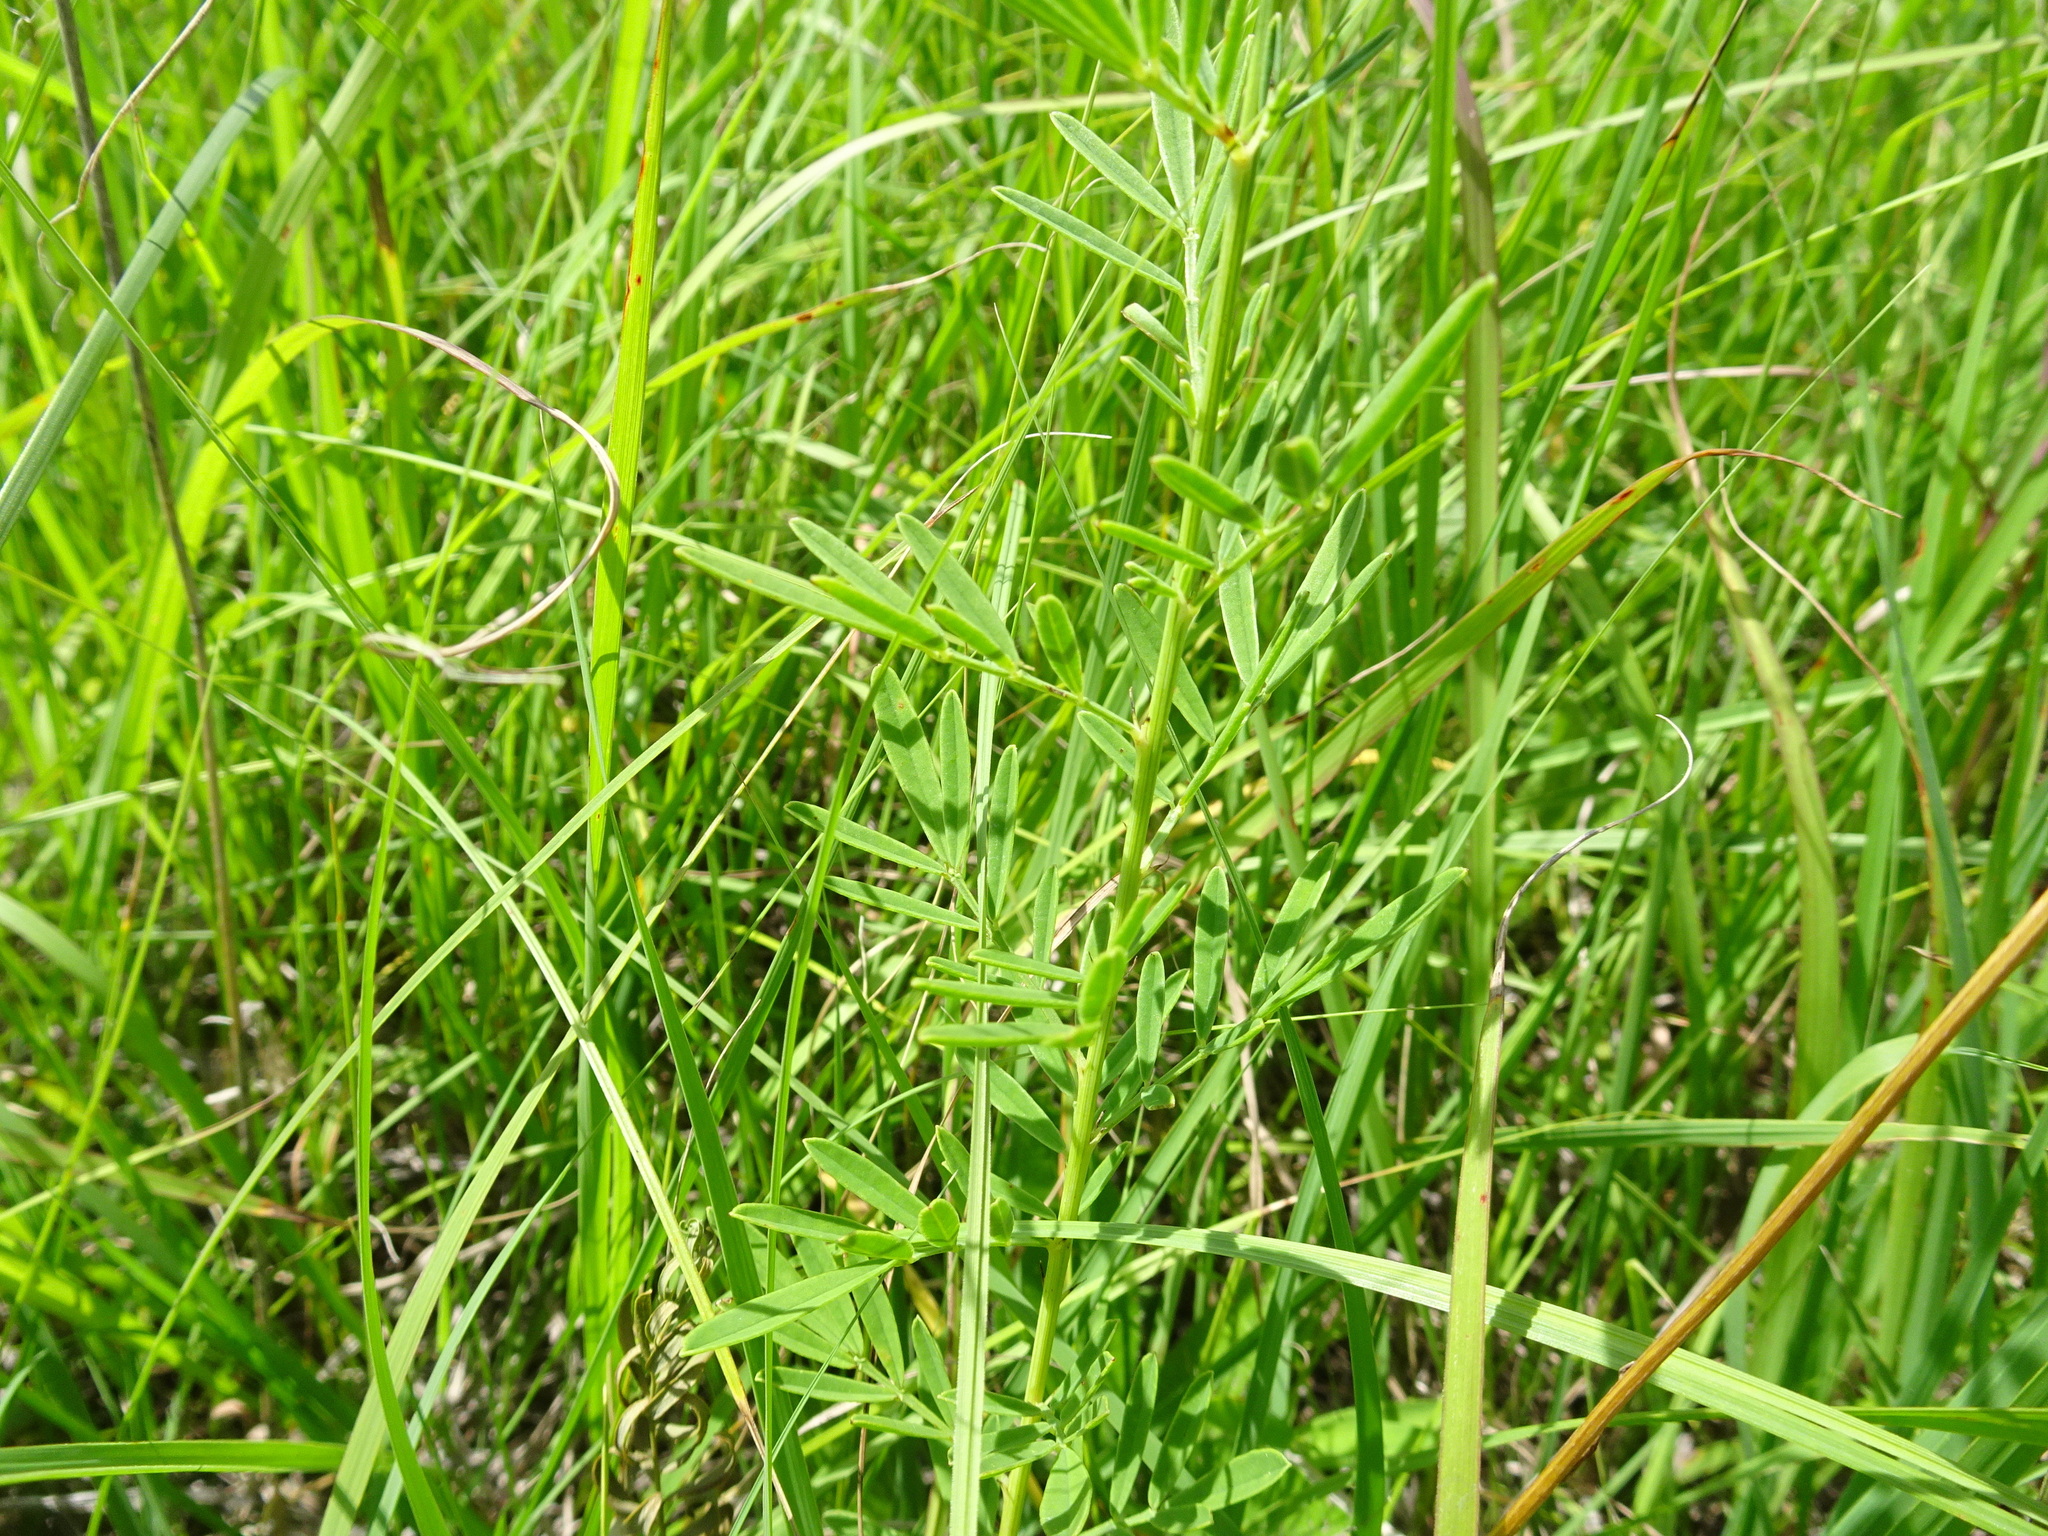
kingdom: Plantae
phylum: Tracheophyta
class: Magnoliopsida
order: Fabales
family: Fabaceae
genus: Dalea
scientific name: Dalea candida
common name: White prairie-clover
